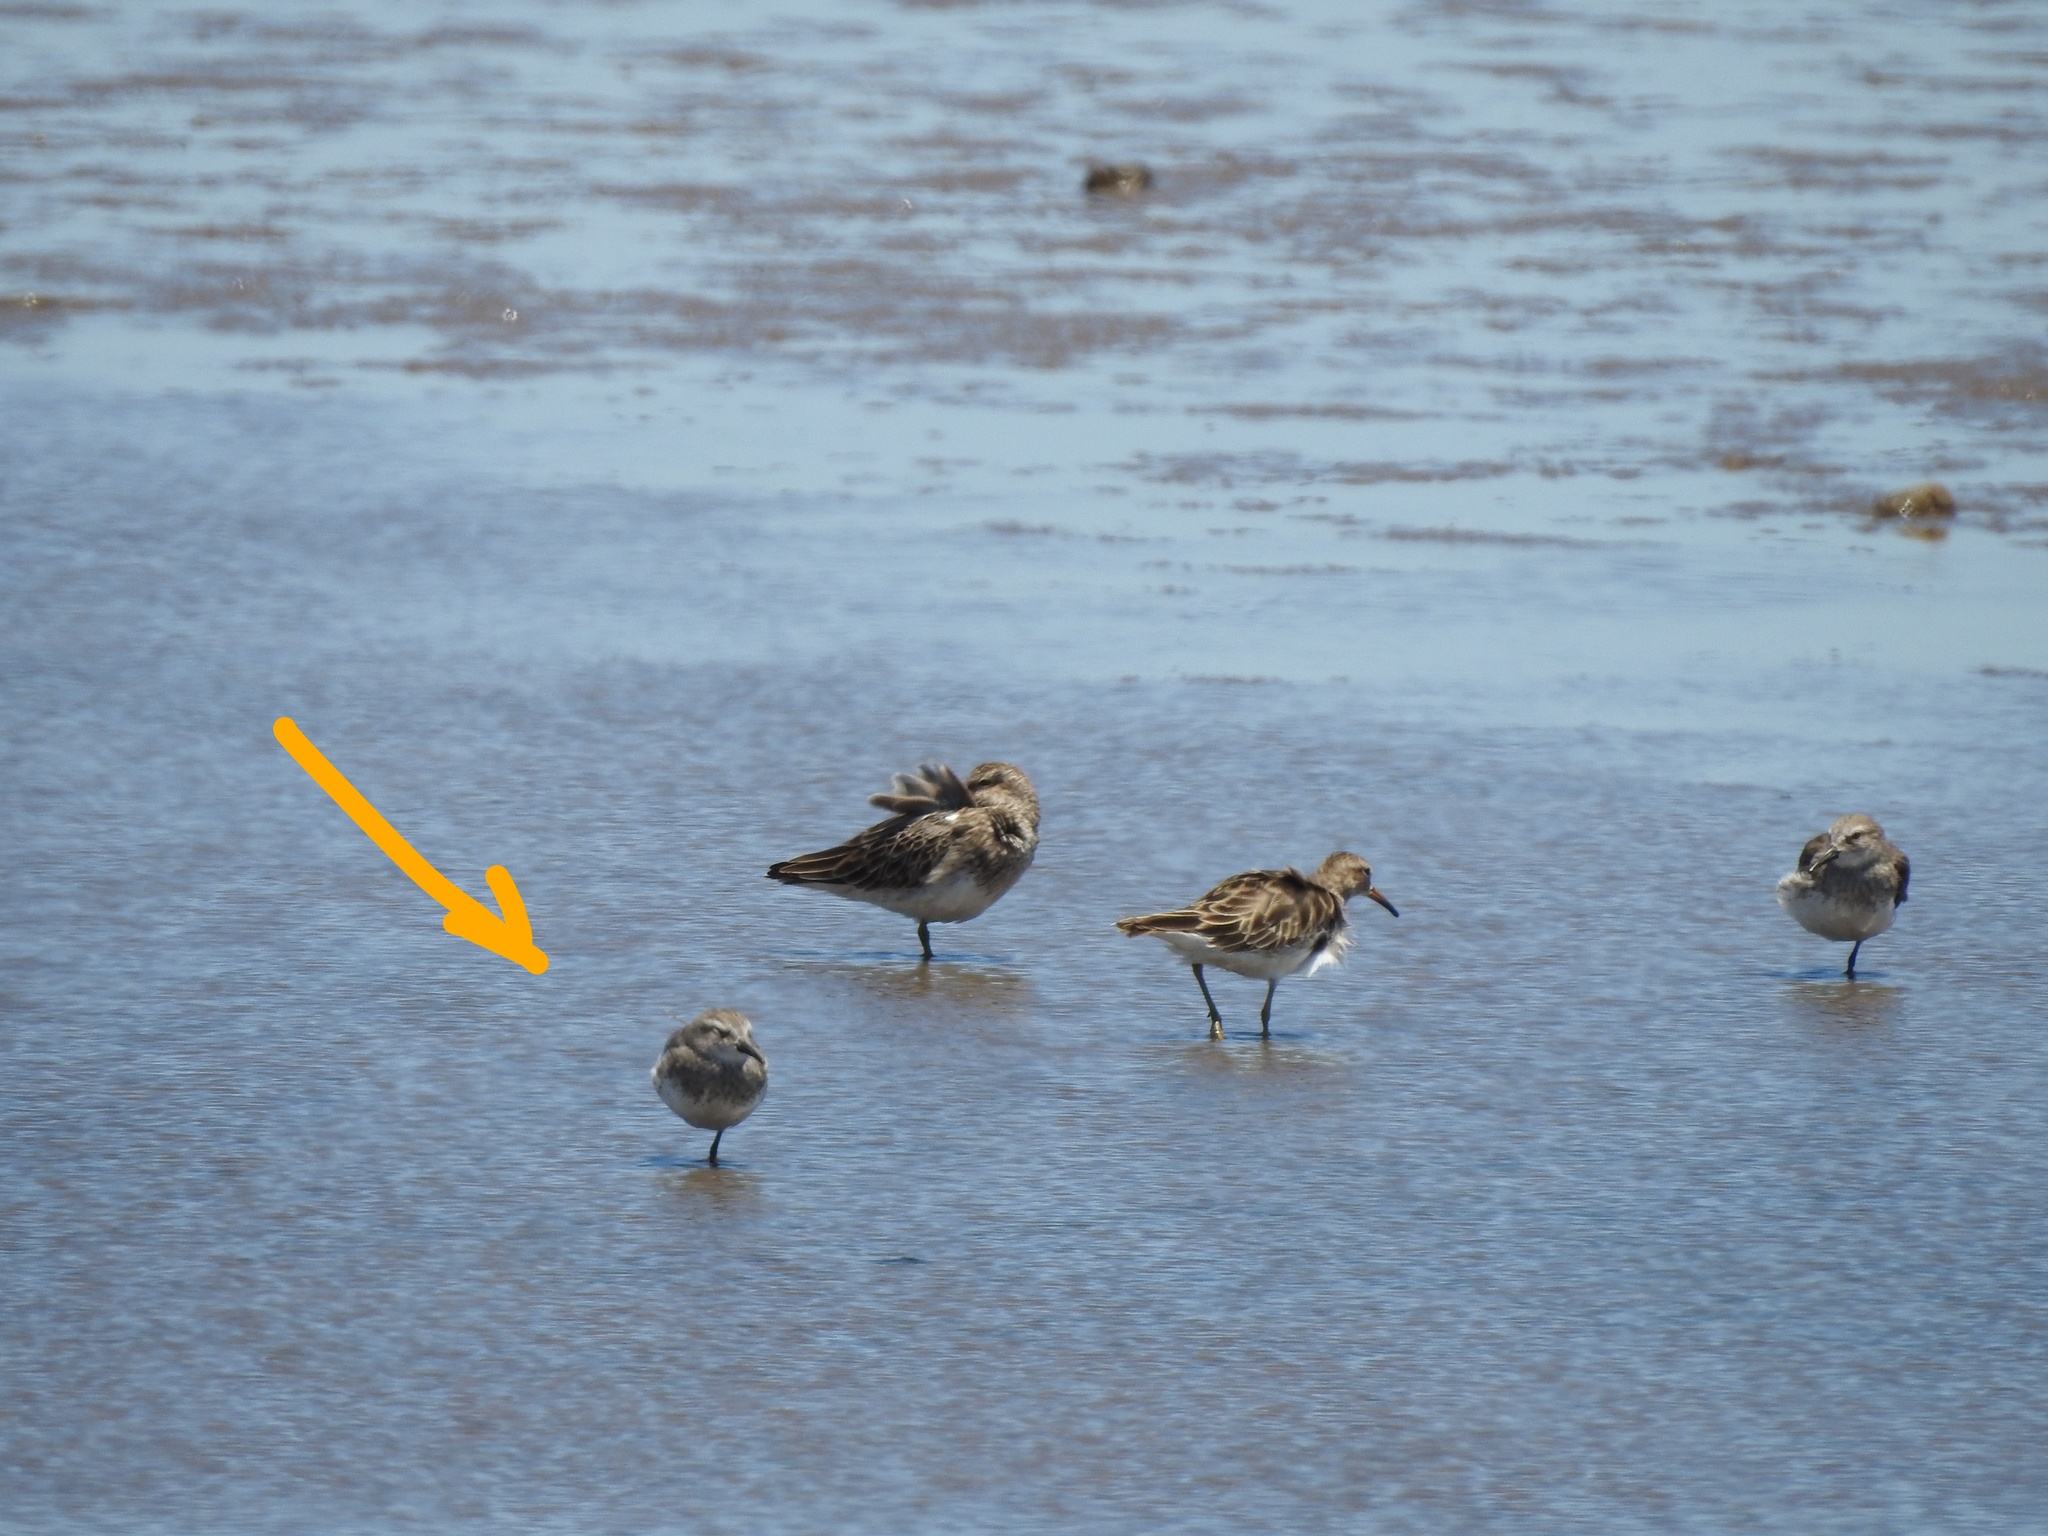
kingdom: Animalia
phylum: Chordata
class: Aves
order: Charadriiformes
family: Scolopacidae
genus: Calidris
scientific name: Calidris fuscicollis
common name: White-rumped sandpiper
